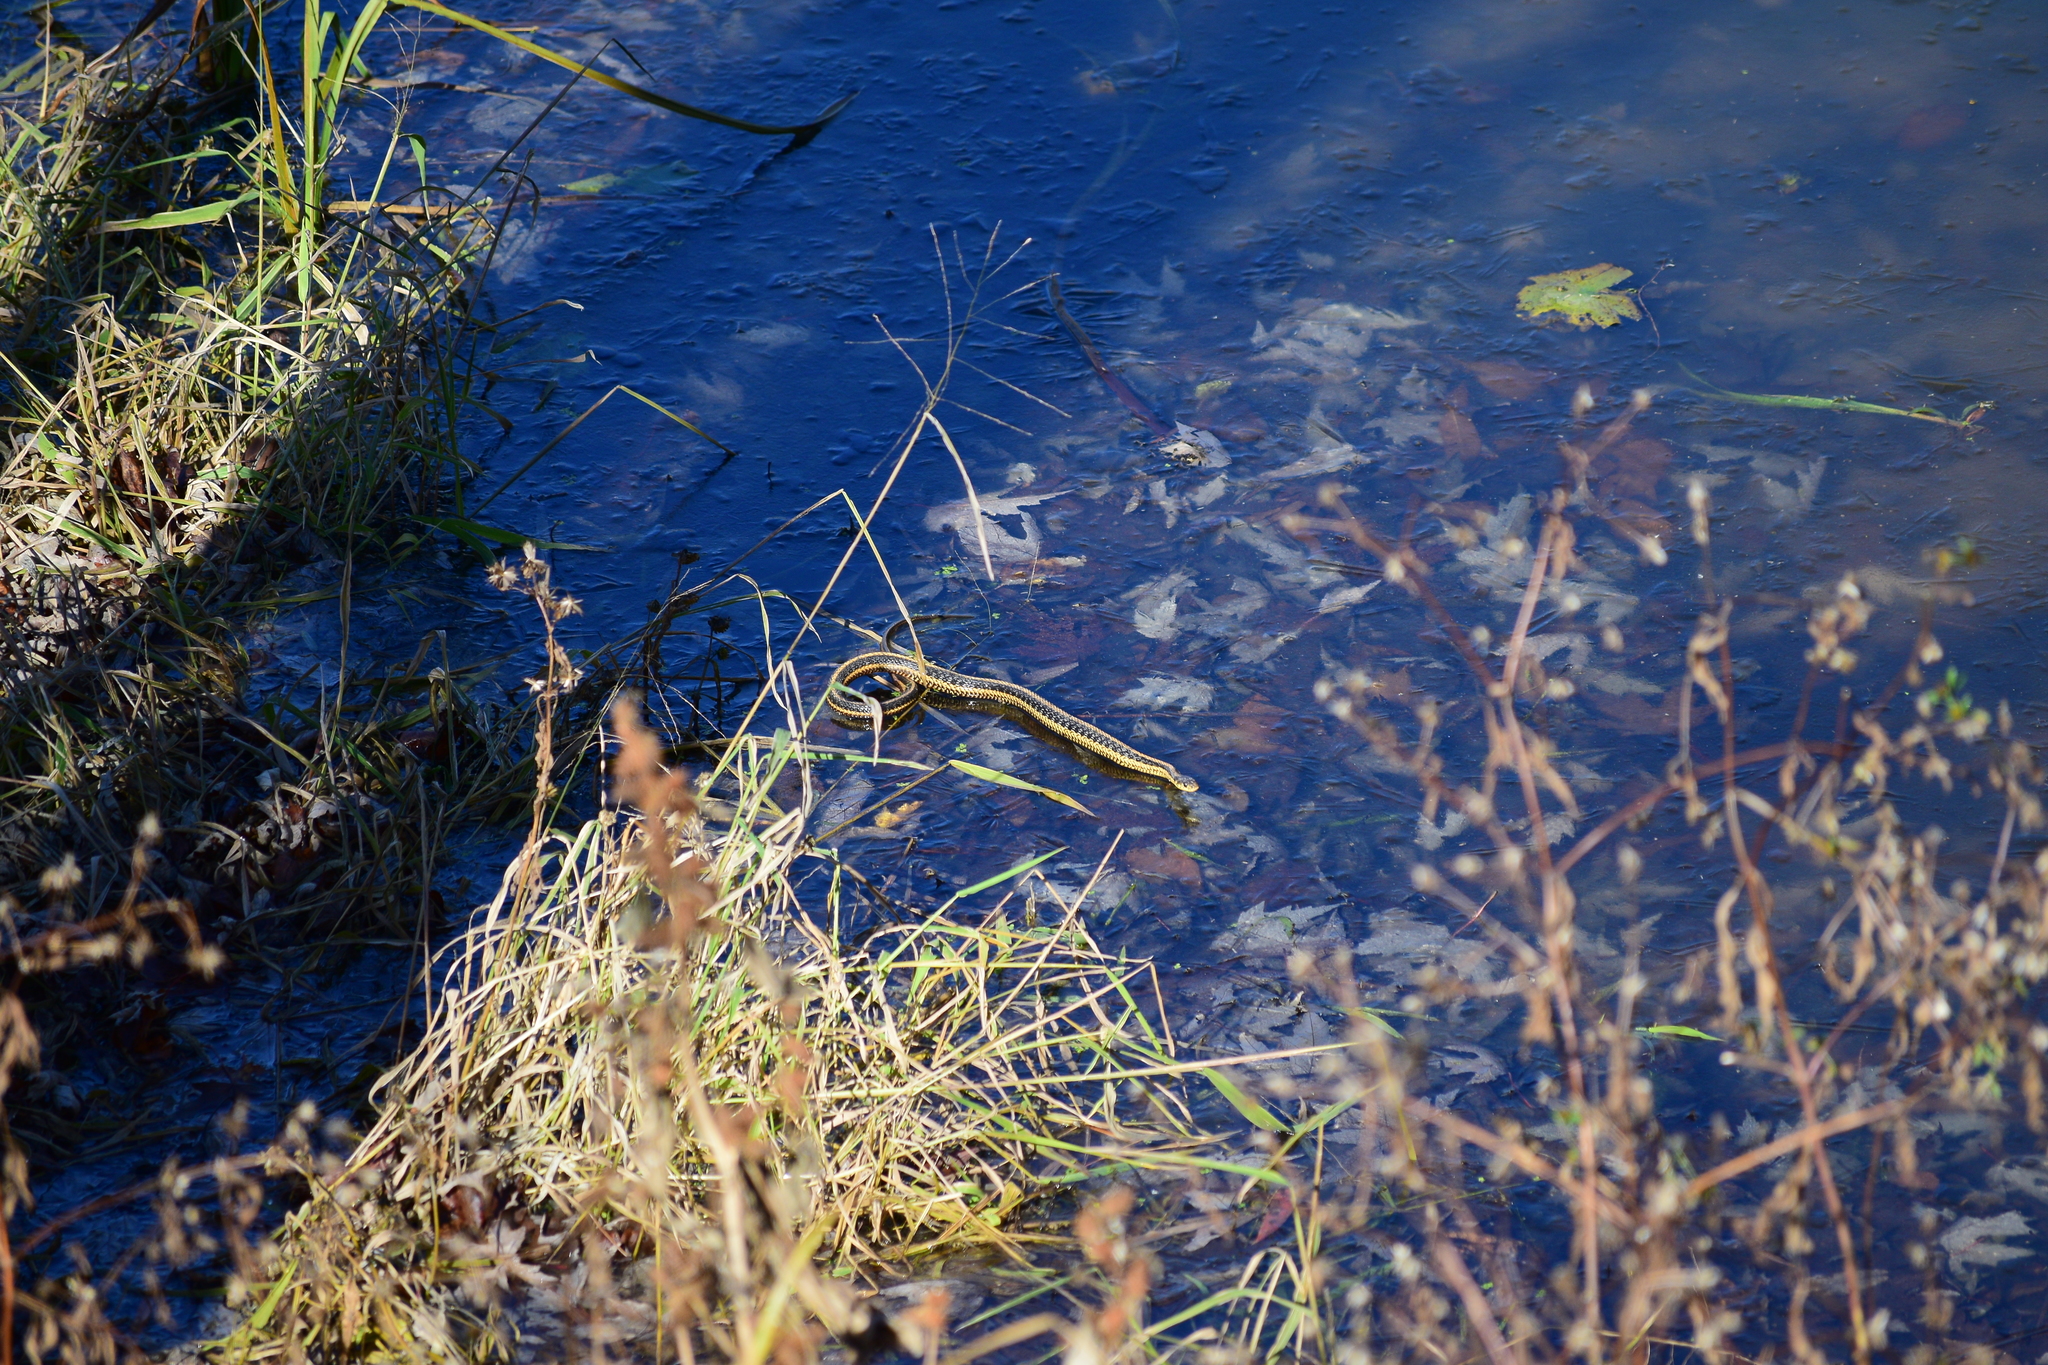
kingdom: Animalia
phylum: Chordata
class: Squamata
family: Colubridae
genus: Thamnophis
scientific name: Thamnophis sirtalis
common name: Common garter snake
